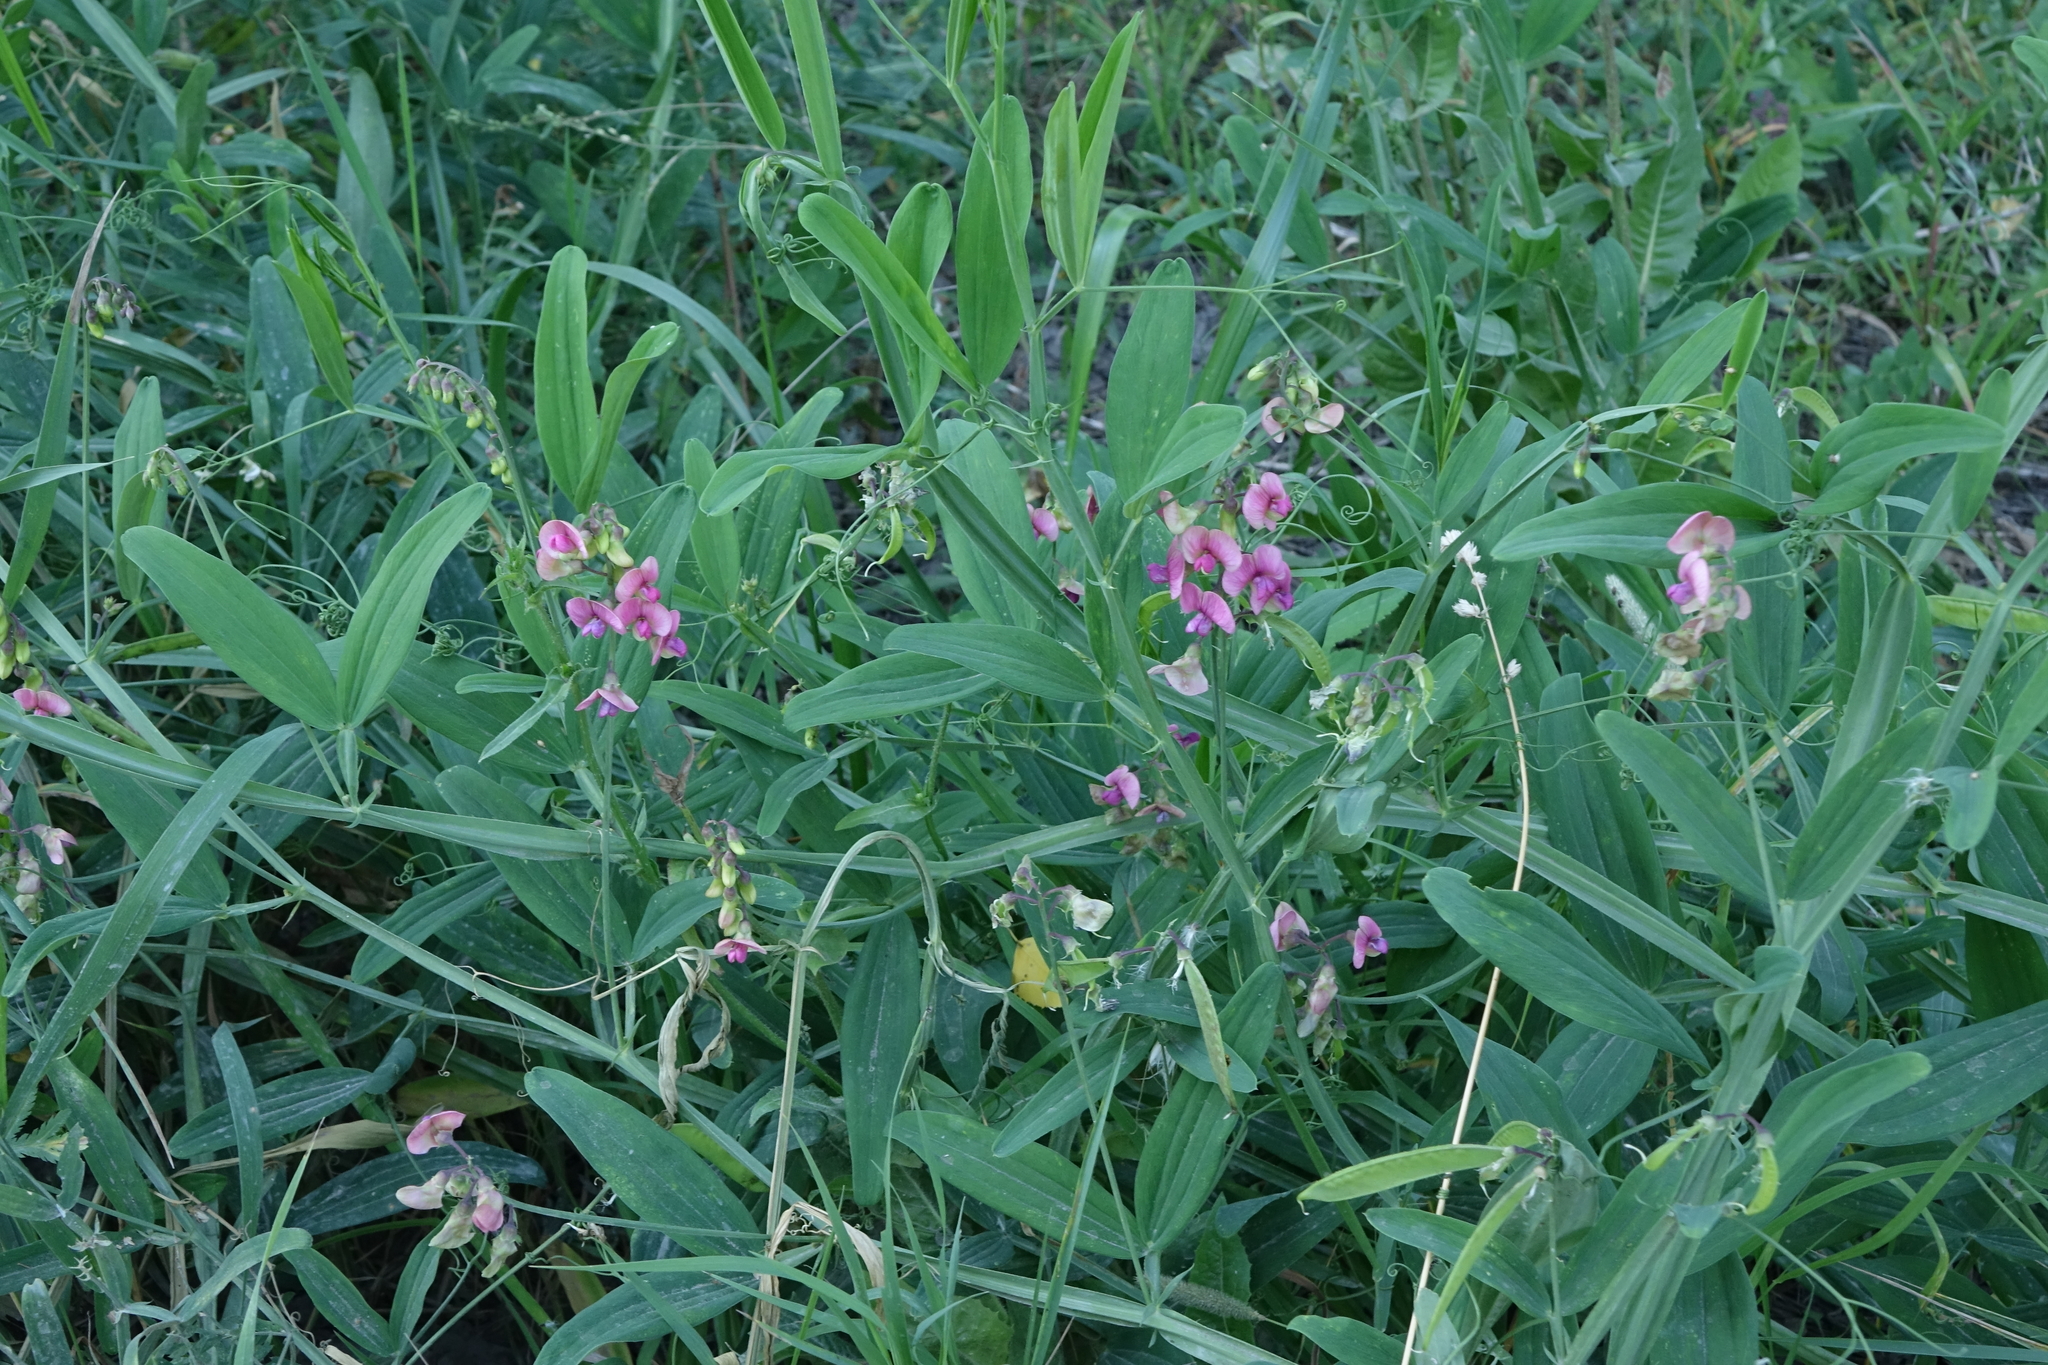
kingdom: Plantae
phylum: Tracheophyta
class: Magnoliopsida
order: Fabales
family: Fabaceae
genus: Lathyrus
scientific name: Lathyrus sylvestris
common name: Flat pea
